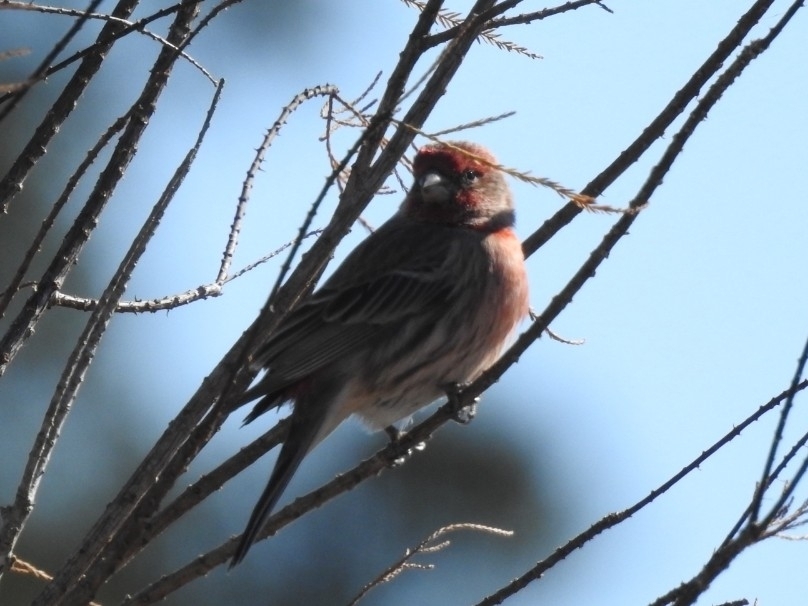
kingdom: Animalia
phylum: Chordata
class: Aves
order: Passeriformes
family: Fringillidae
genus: Haemorhous
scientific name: Haemorhous mexicanus
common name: House finch
